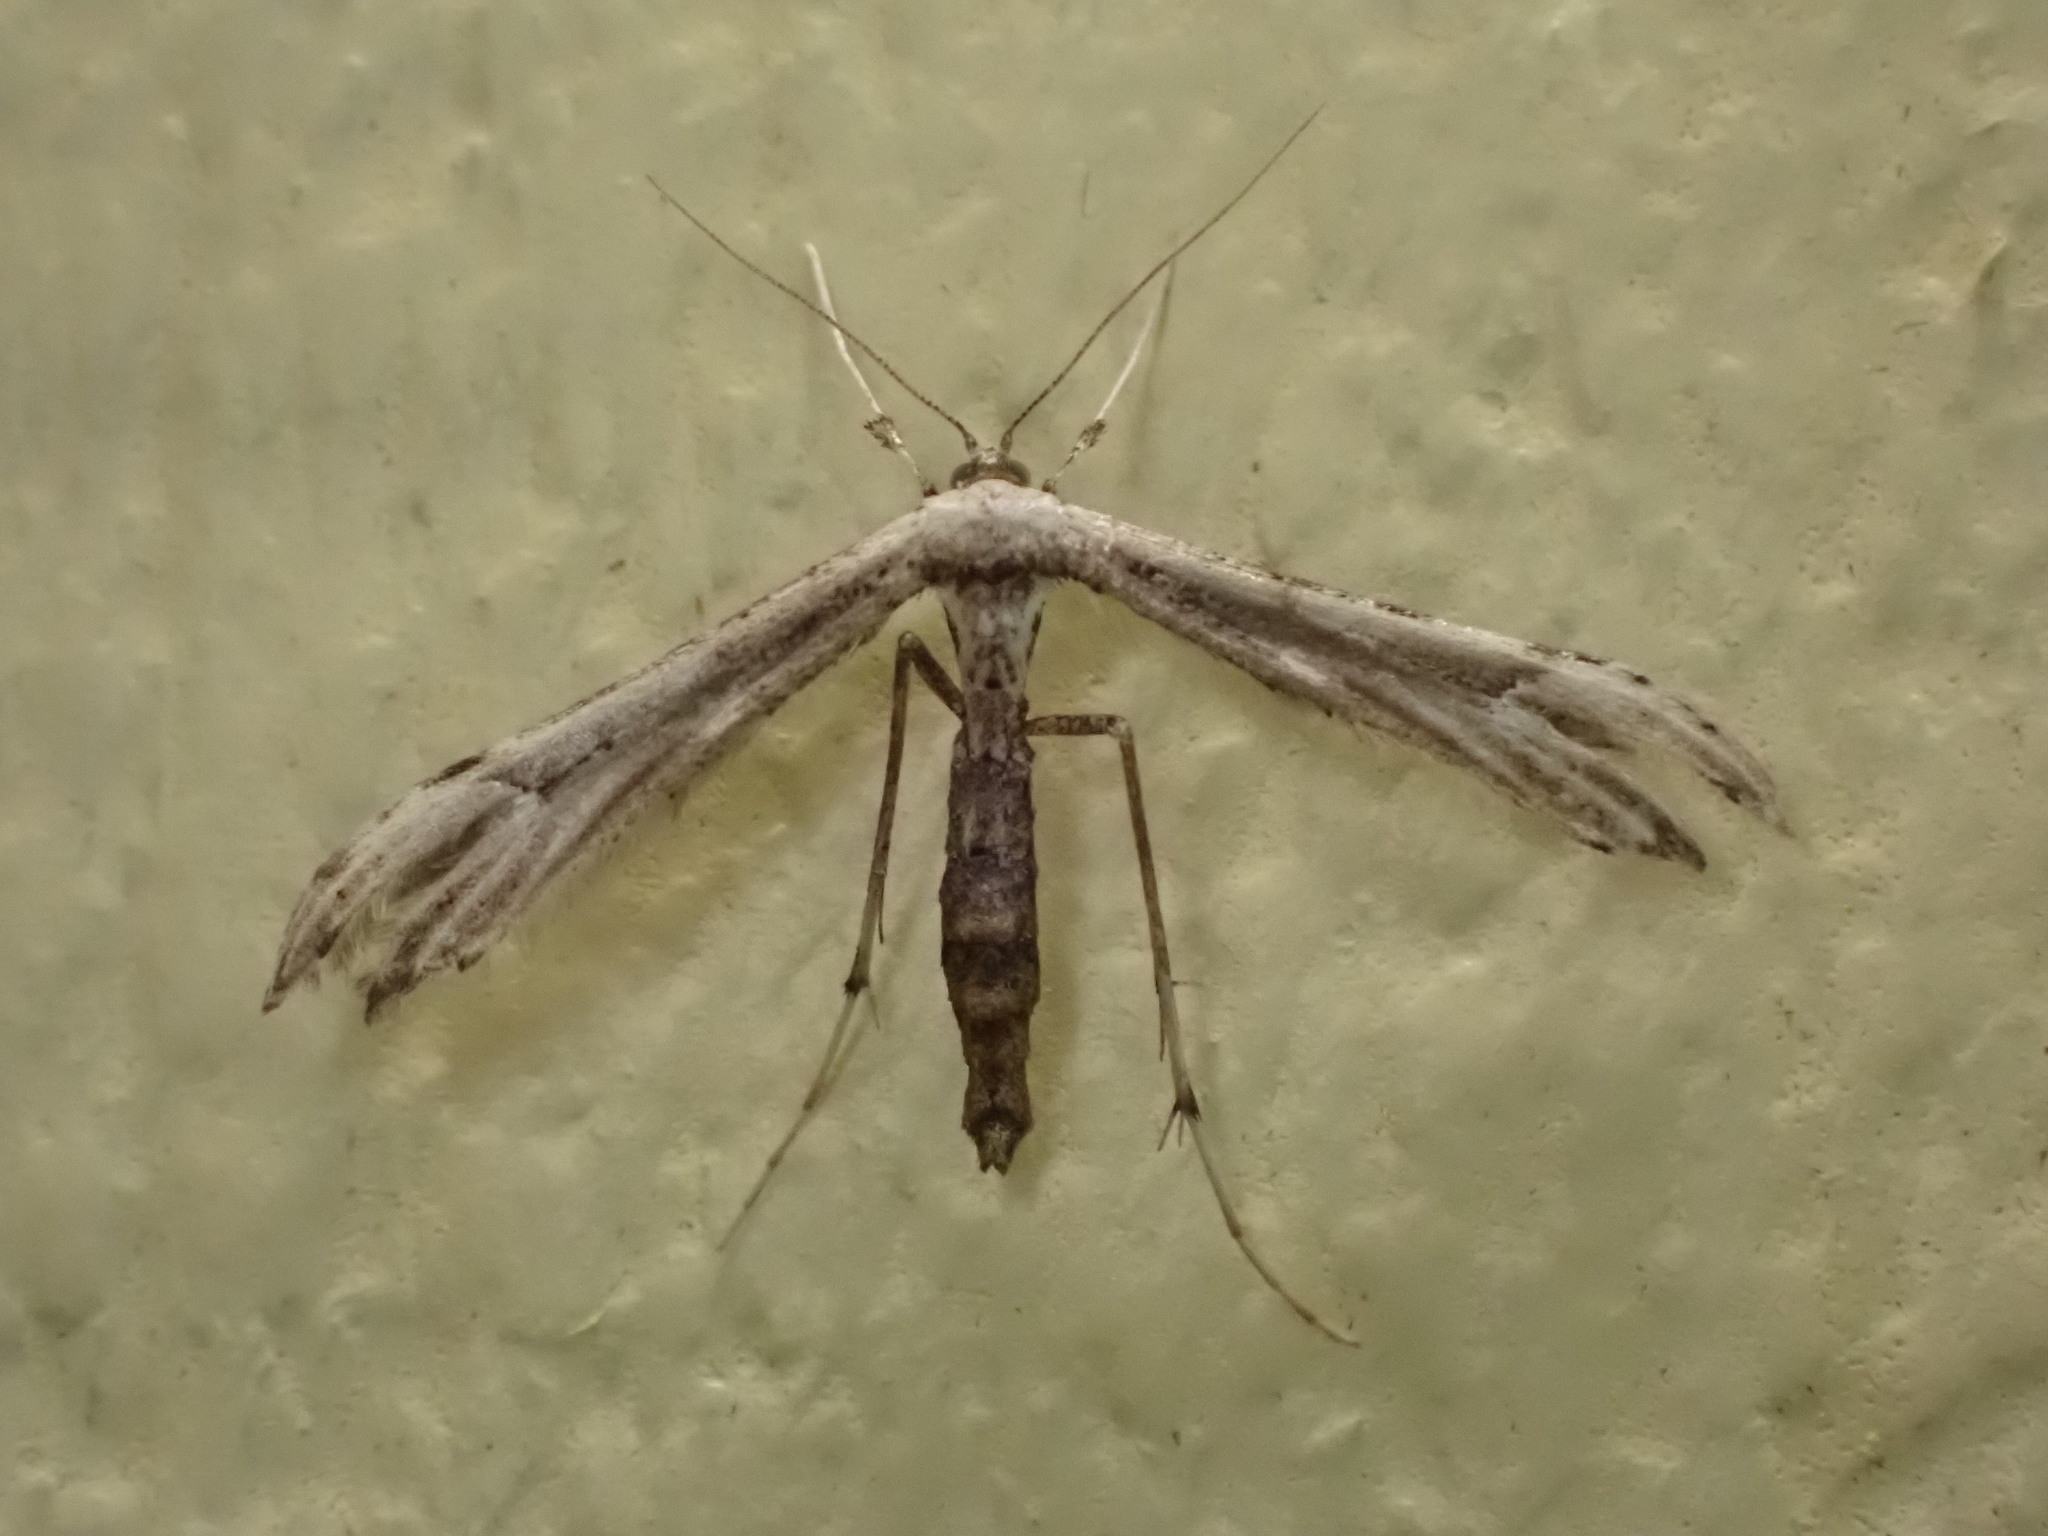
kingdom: Animalia
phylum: Arthropoda
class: Insecta
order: Lepidoptera
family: Pterophoridae
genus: Oidaematophorus
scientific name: Oidaematophorus eupatorii
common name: Eupatorium plume moth
